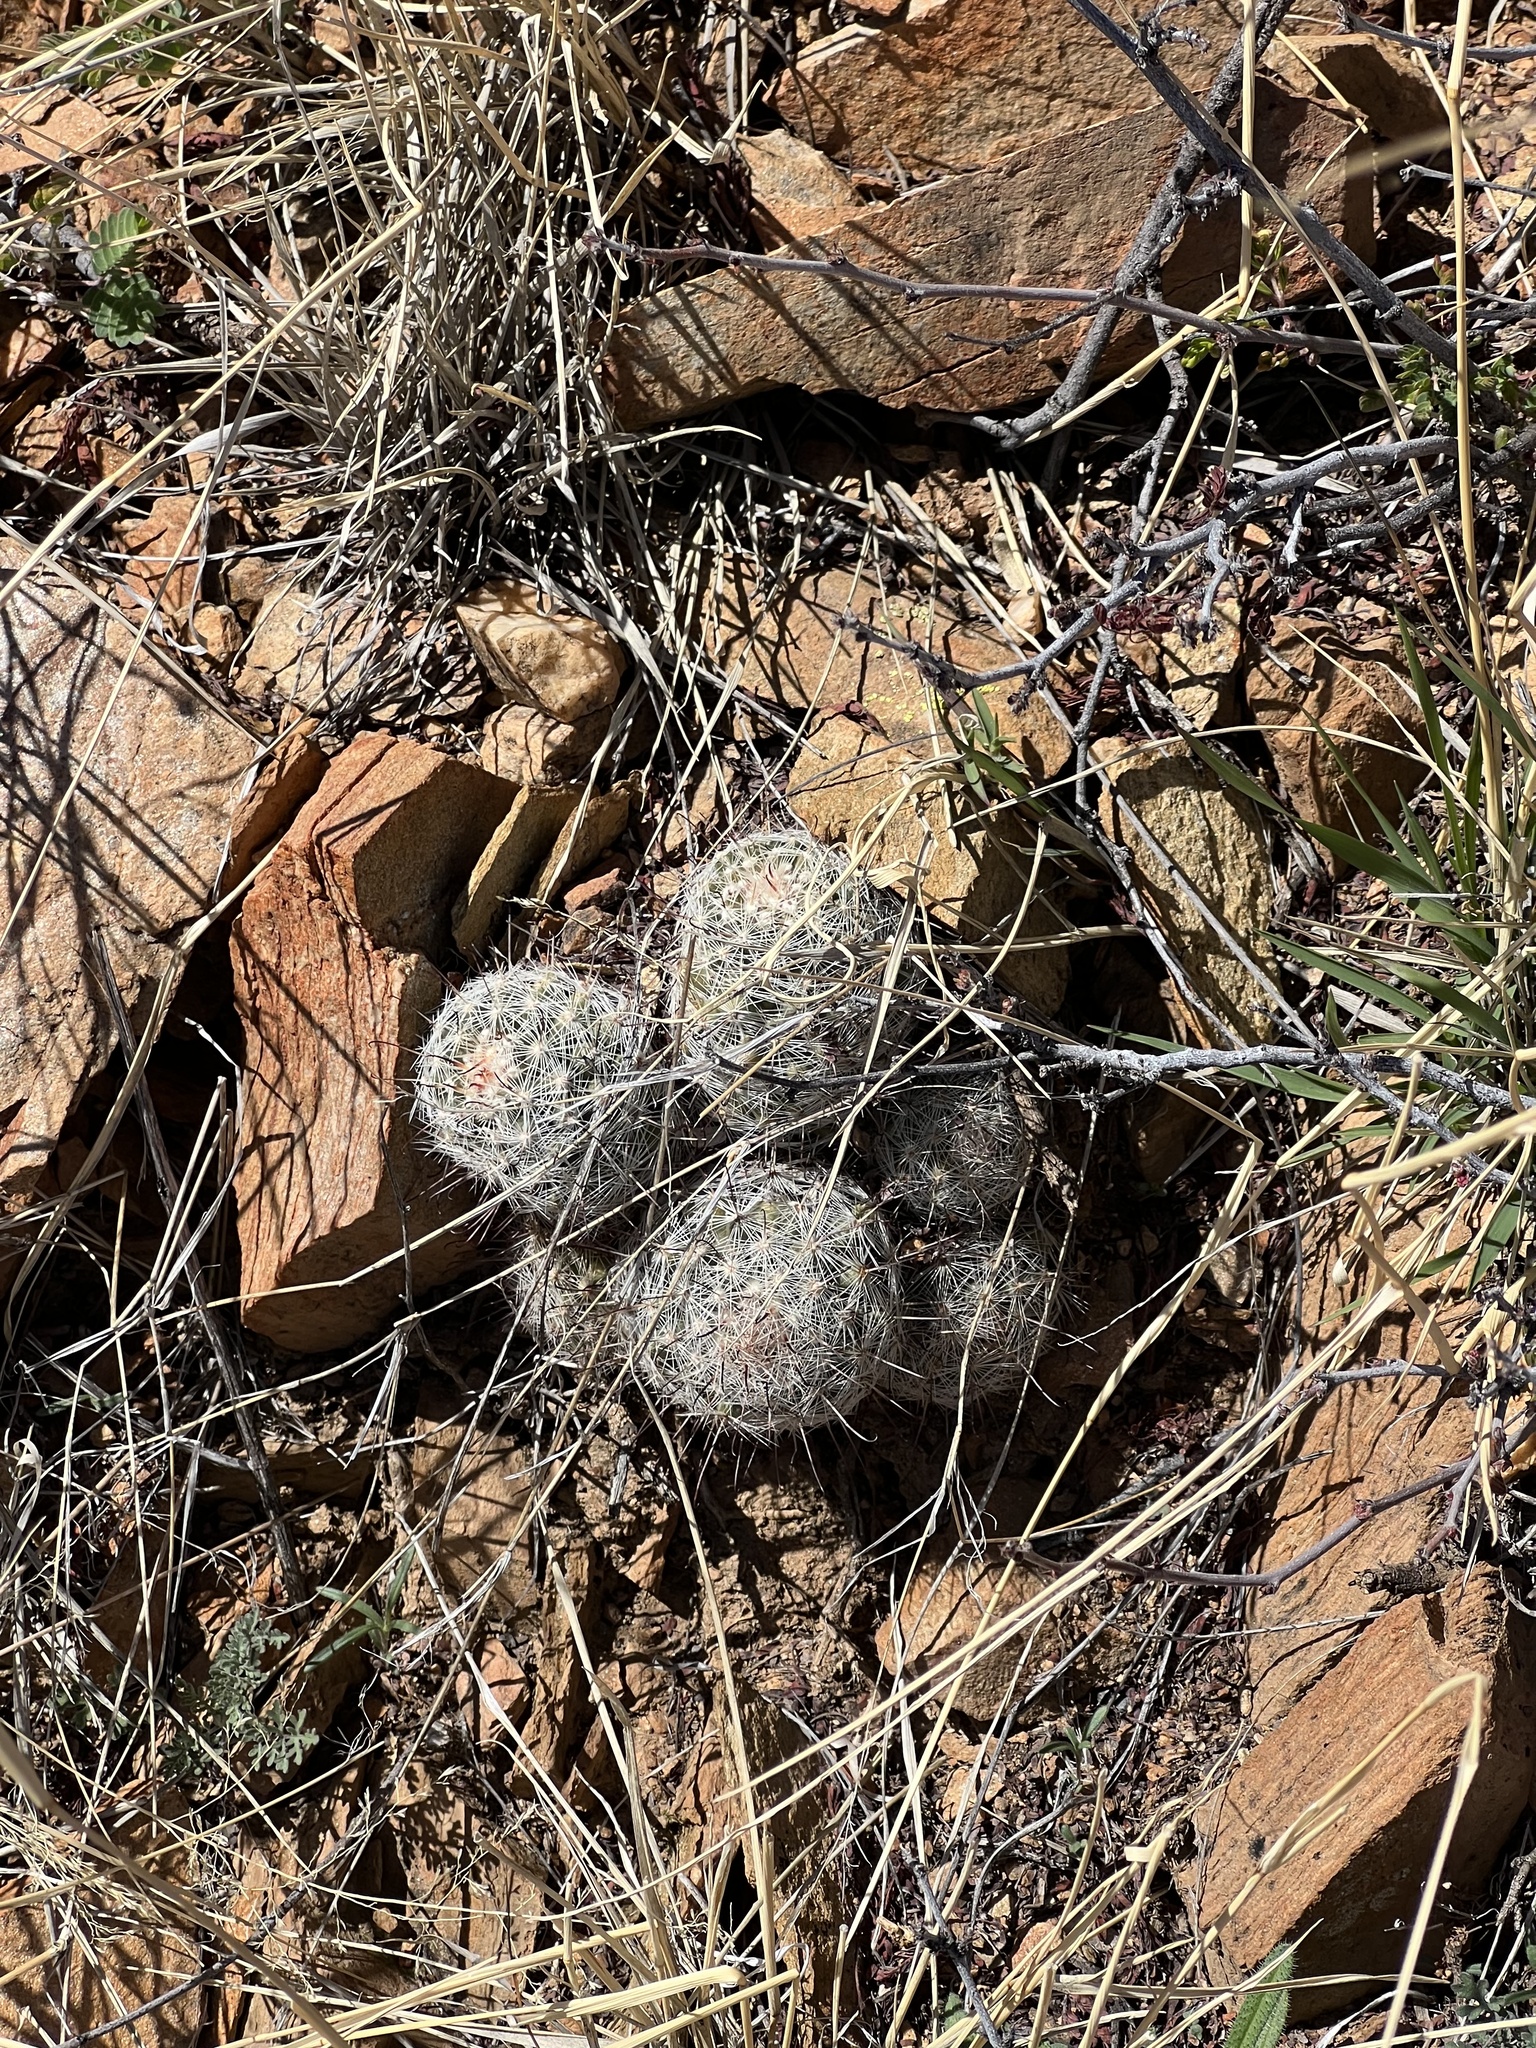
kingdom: Plantae
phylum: Tracheophyta
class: Magnoliopsida
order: Caryophyllales
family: Cactaceae
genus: Cochemiea
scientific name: Cochemiea grahamii
